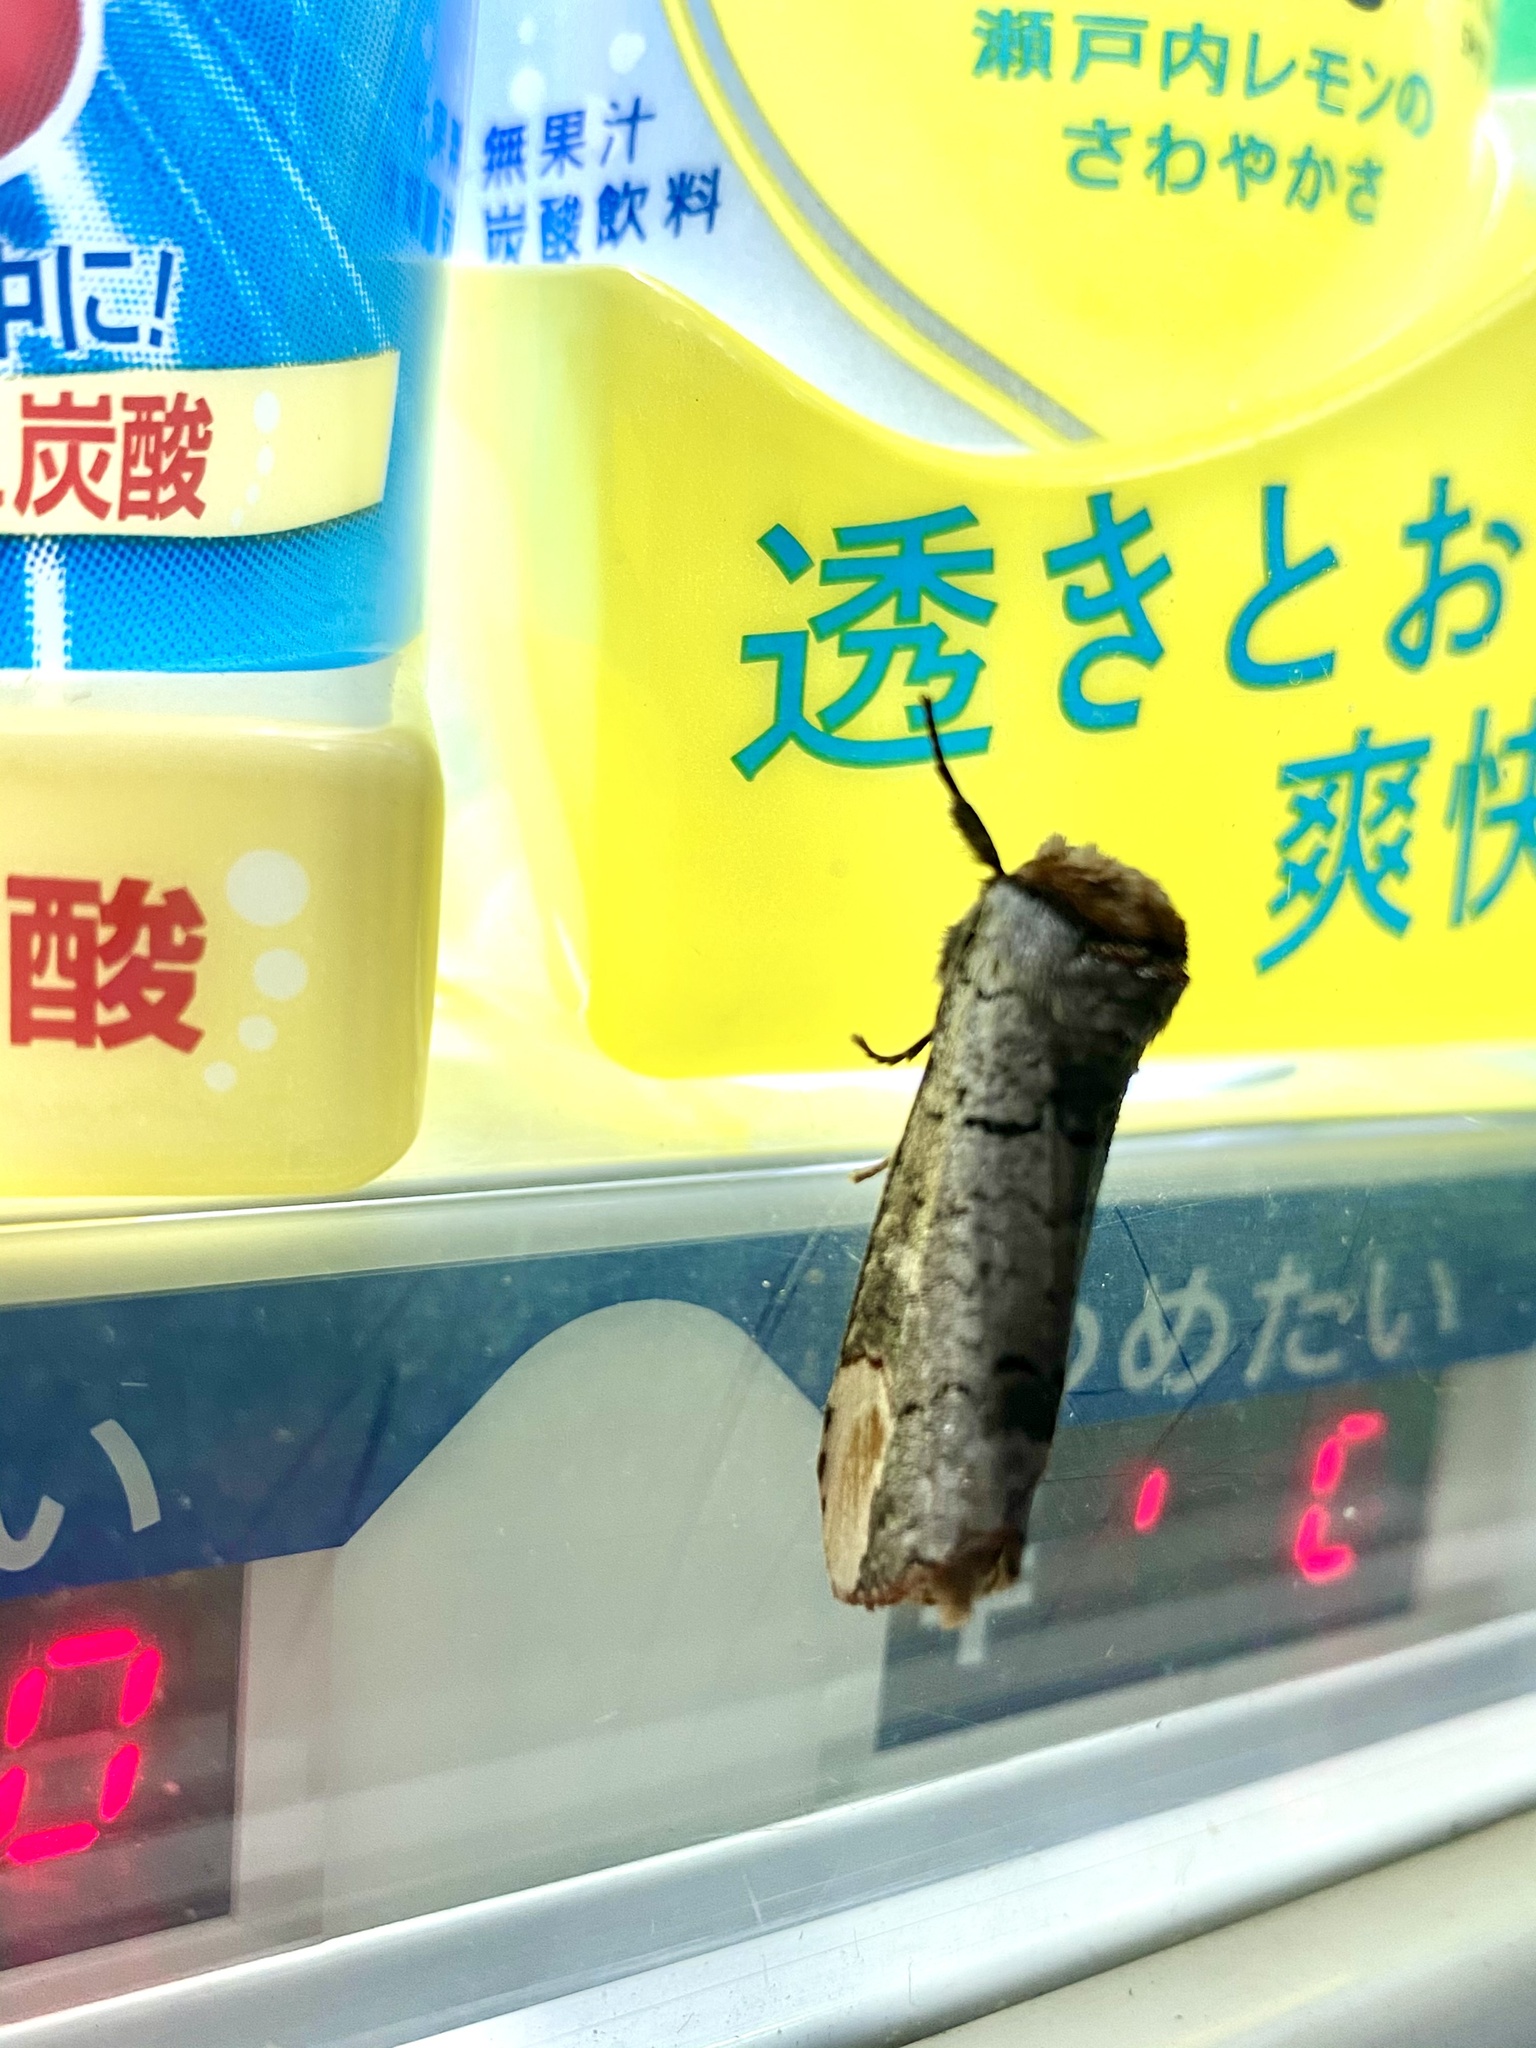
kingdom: Animalia
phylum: Arthropoda
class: Insecta
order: Lepidoptera
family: Notodontidae
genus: Phalera
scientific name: Phalera assimilis
